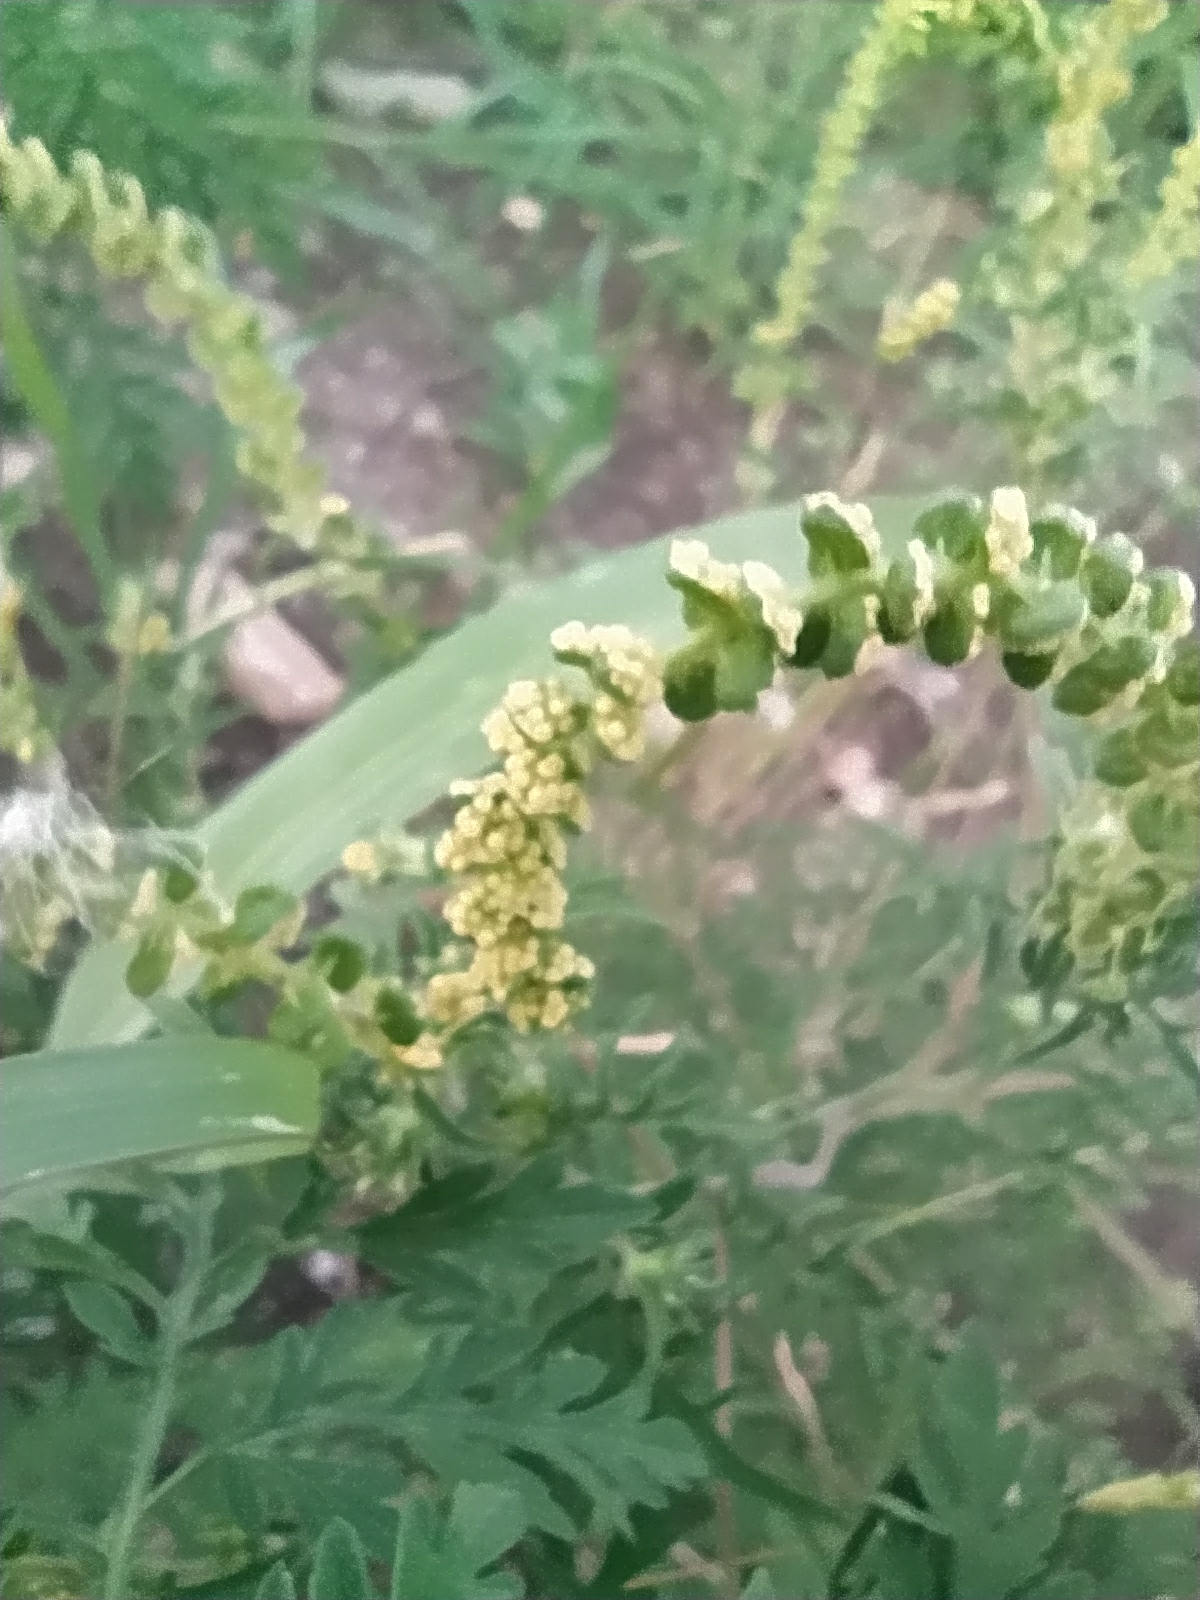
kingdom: Plantae
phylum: Tracheophyta
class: Magnoliopsida
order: Asterales
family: Asteraceae
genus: Ambrosia
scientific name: Ambrosia artemisiifolia
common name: Annual ragweed
